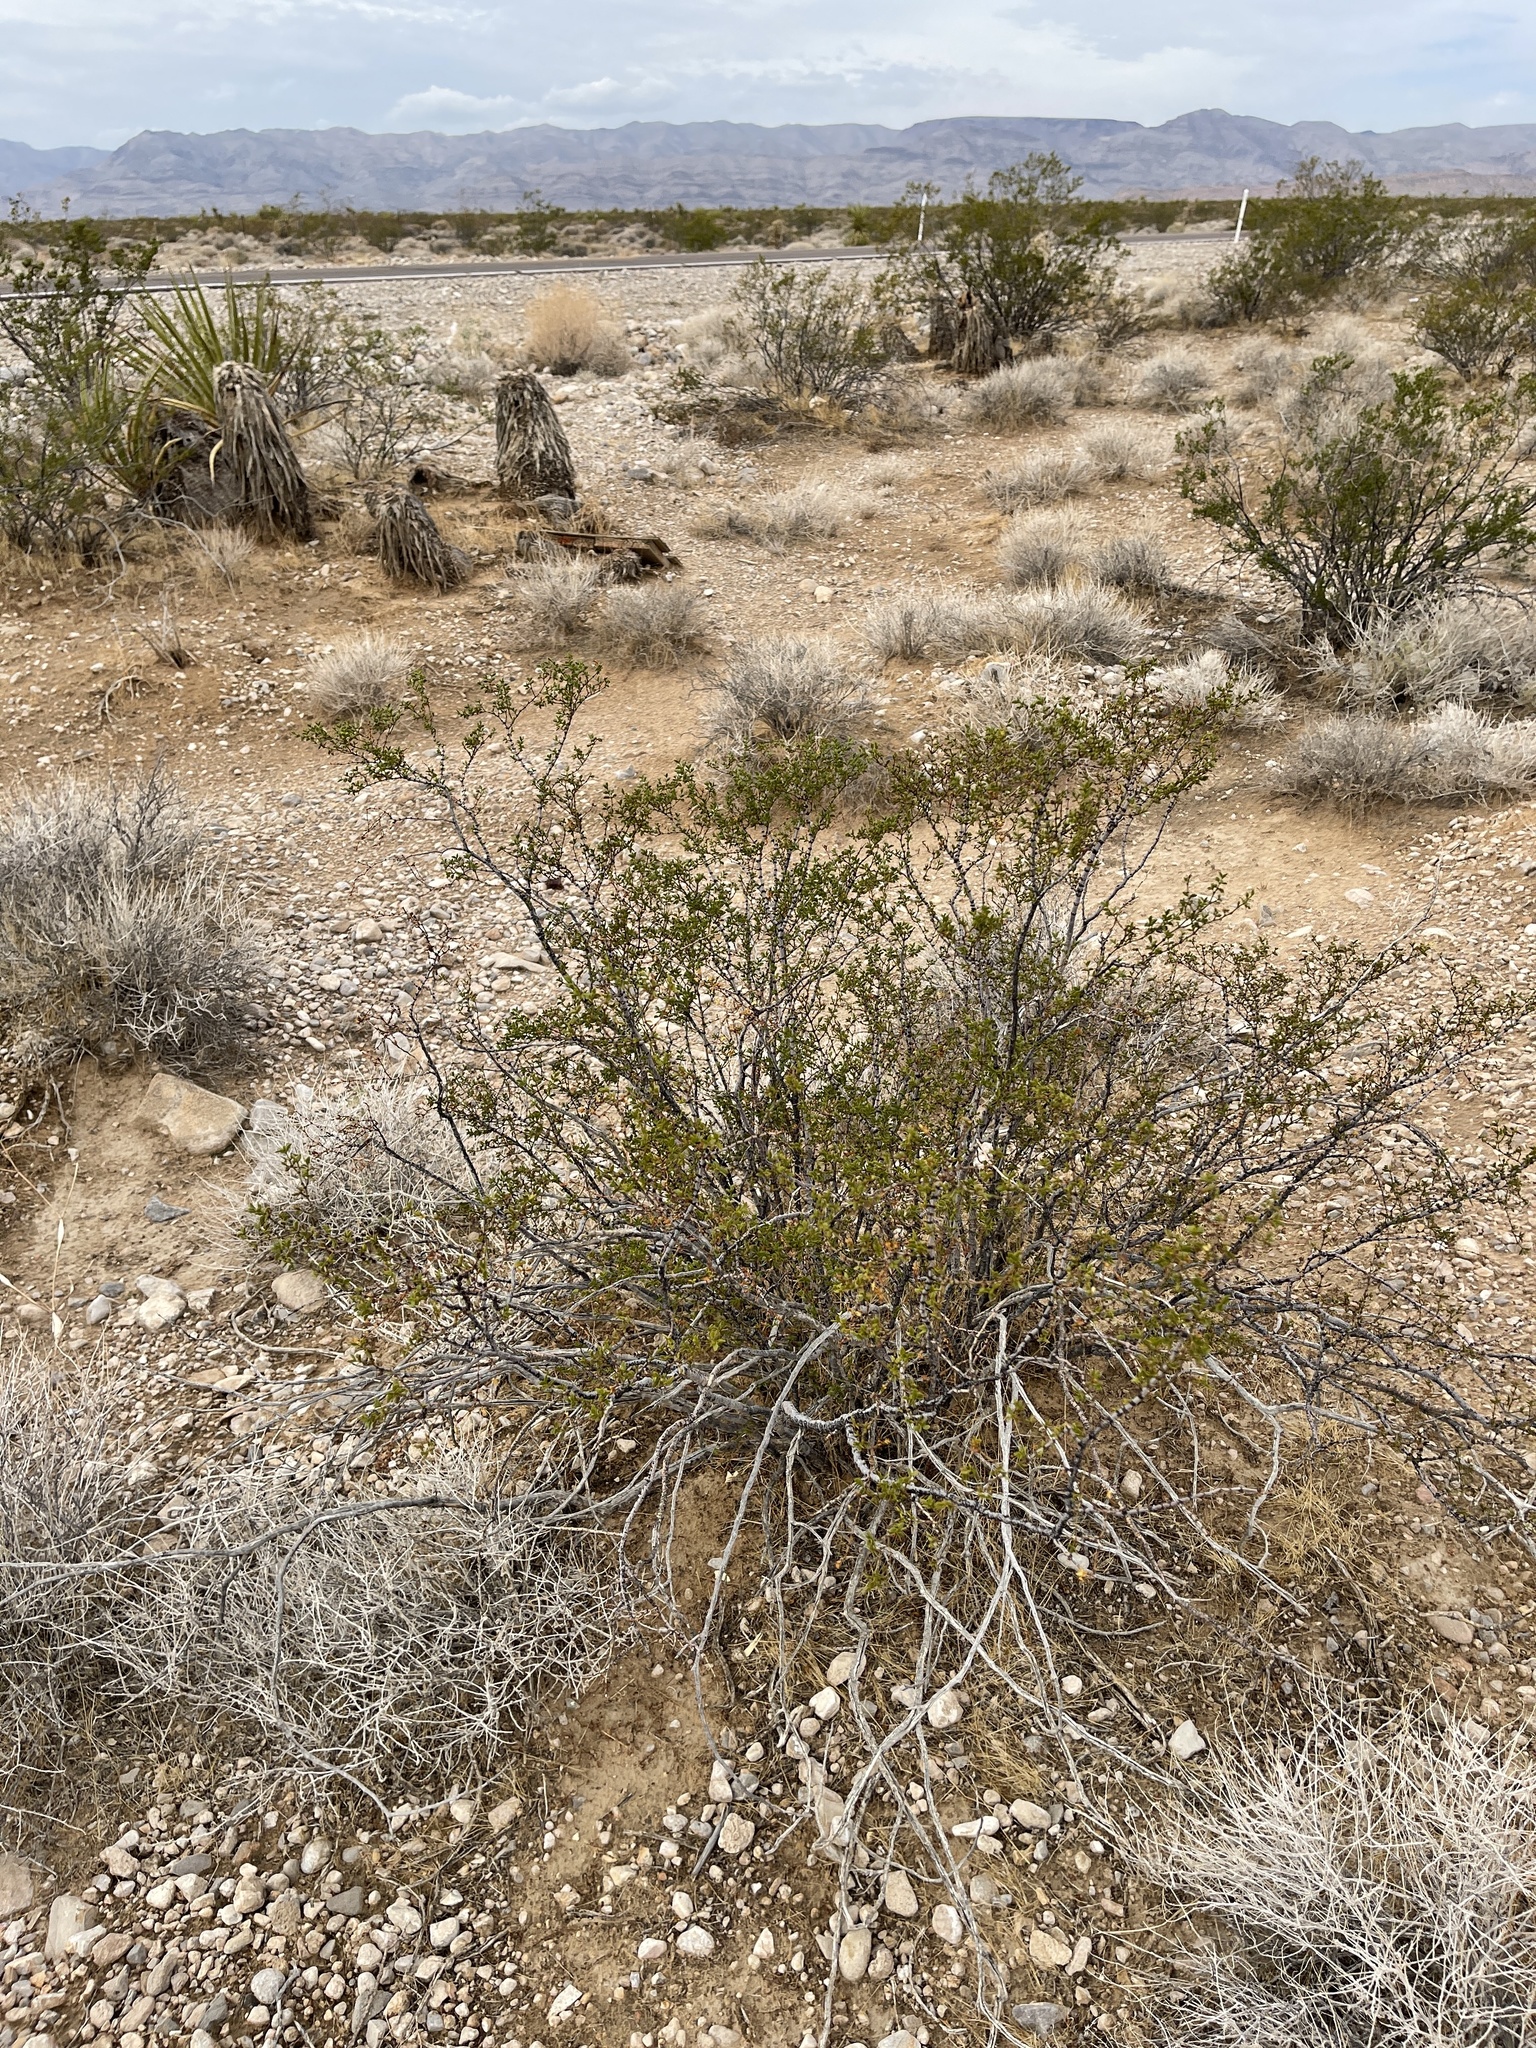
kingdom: Plantae
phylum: Tracheophyta
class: Magnoliopsida
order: Zygophyllales
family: Zygophyllaceae
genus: Larrea
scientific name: Larrea tridentata
